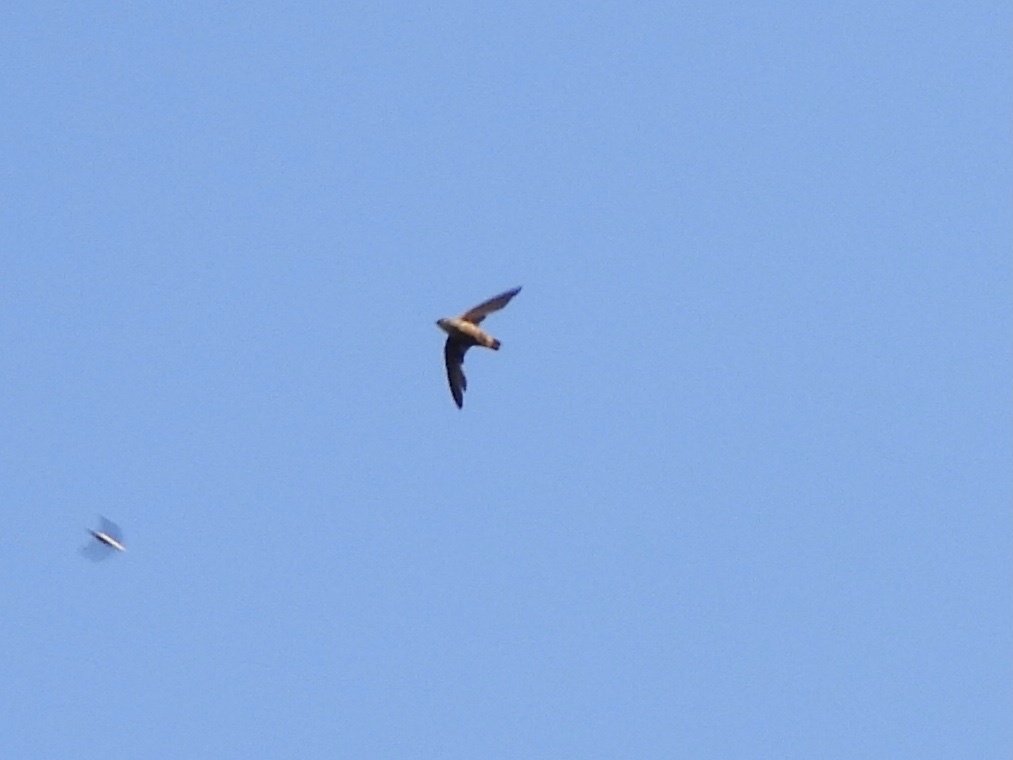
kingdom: Animalia
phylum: Chordata
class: Aves
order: Apodiformes
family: Apodidae
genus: Chaetura
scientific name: Chaetura vauxi
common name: Vaux's swift
